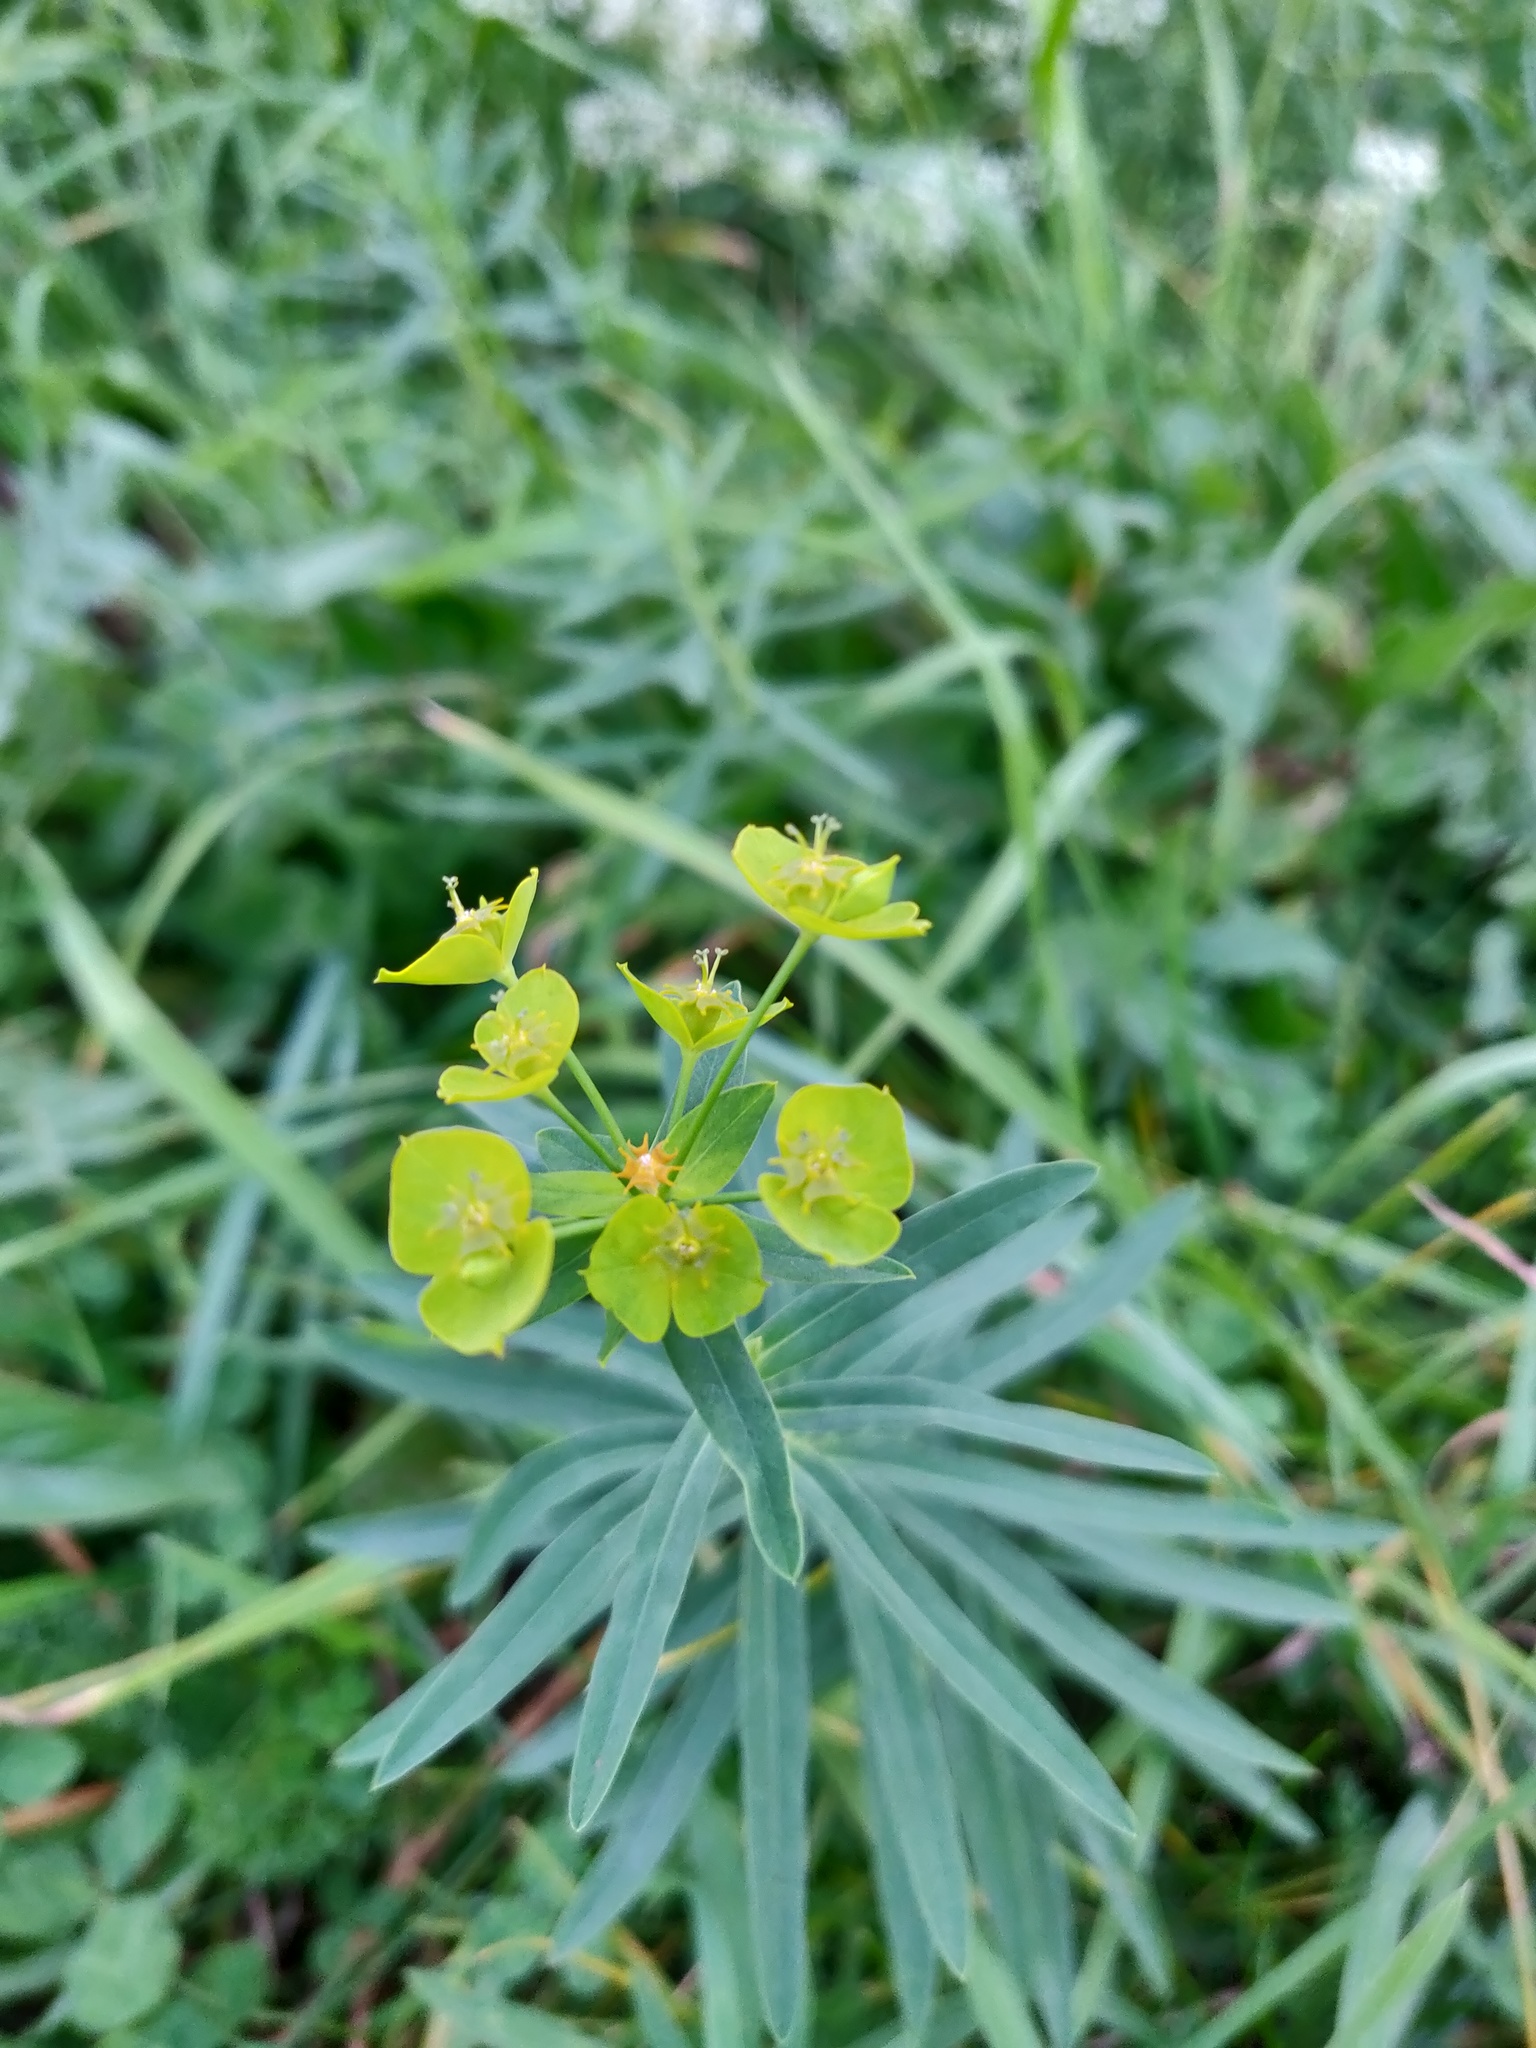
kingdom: Plantae
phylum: Tracheophyta
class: Magnoliopsida
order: Malpighiales
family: Euphorbiaceae
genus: Euphorbia
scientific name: Euphorbia virgata
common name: Leafy spurge
